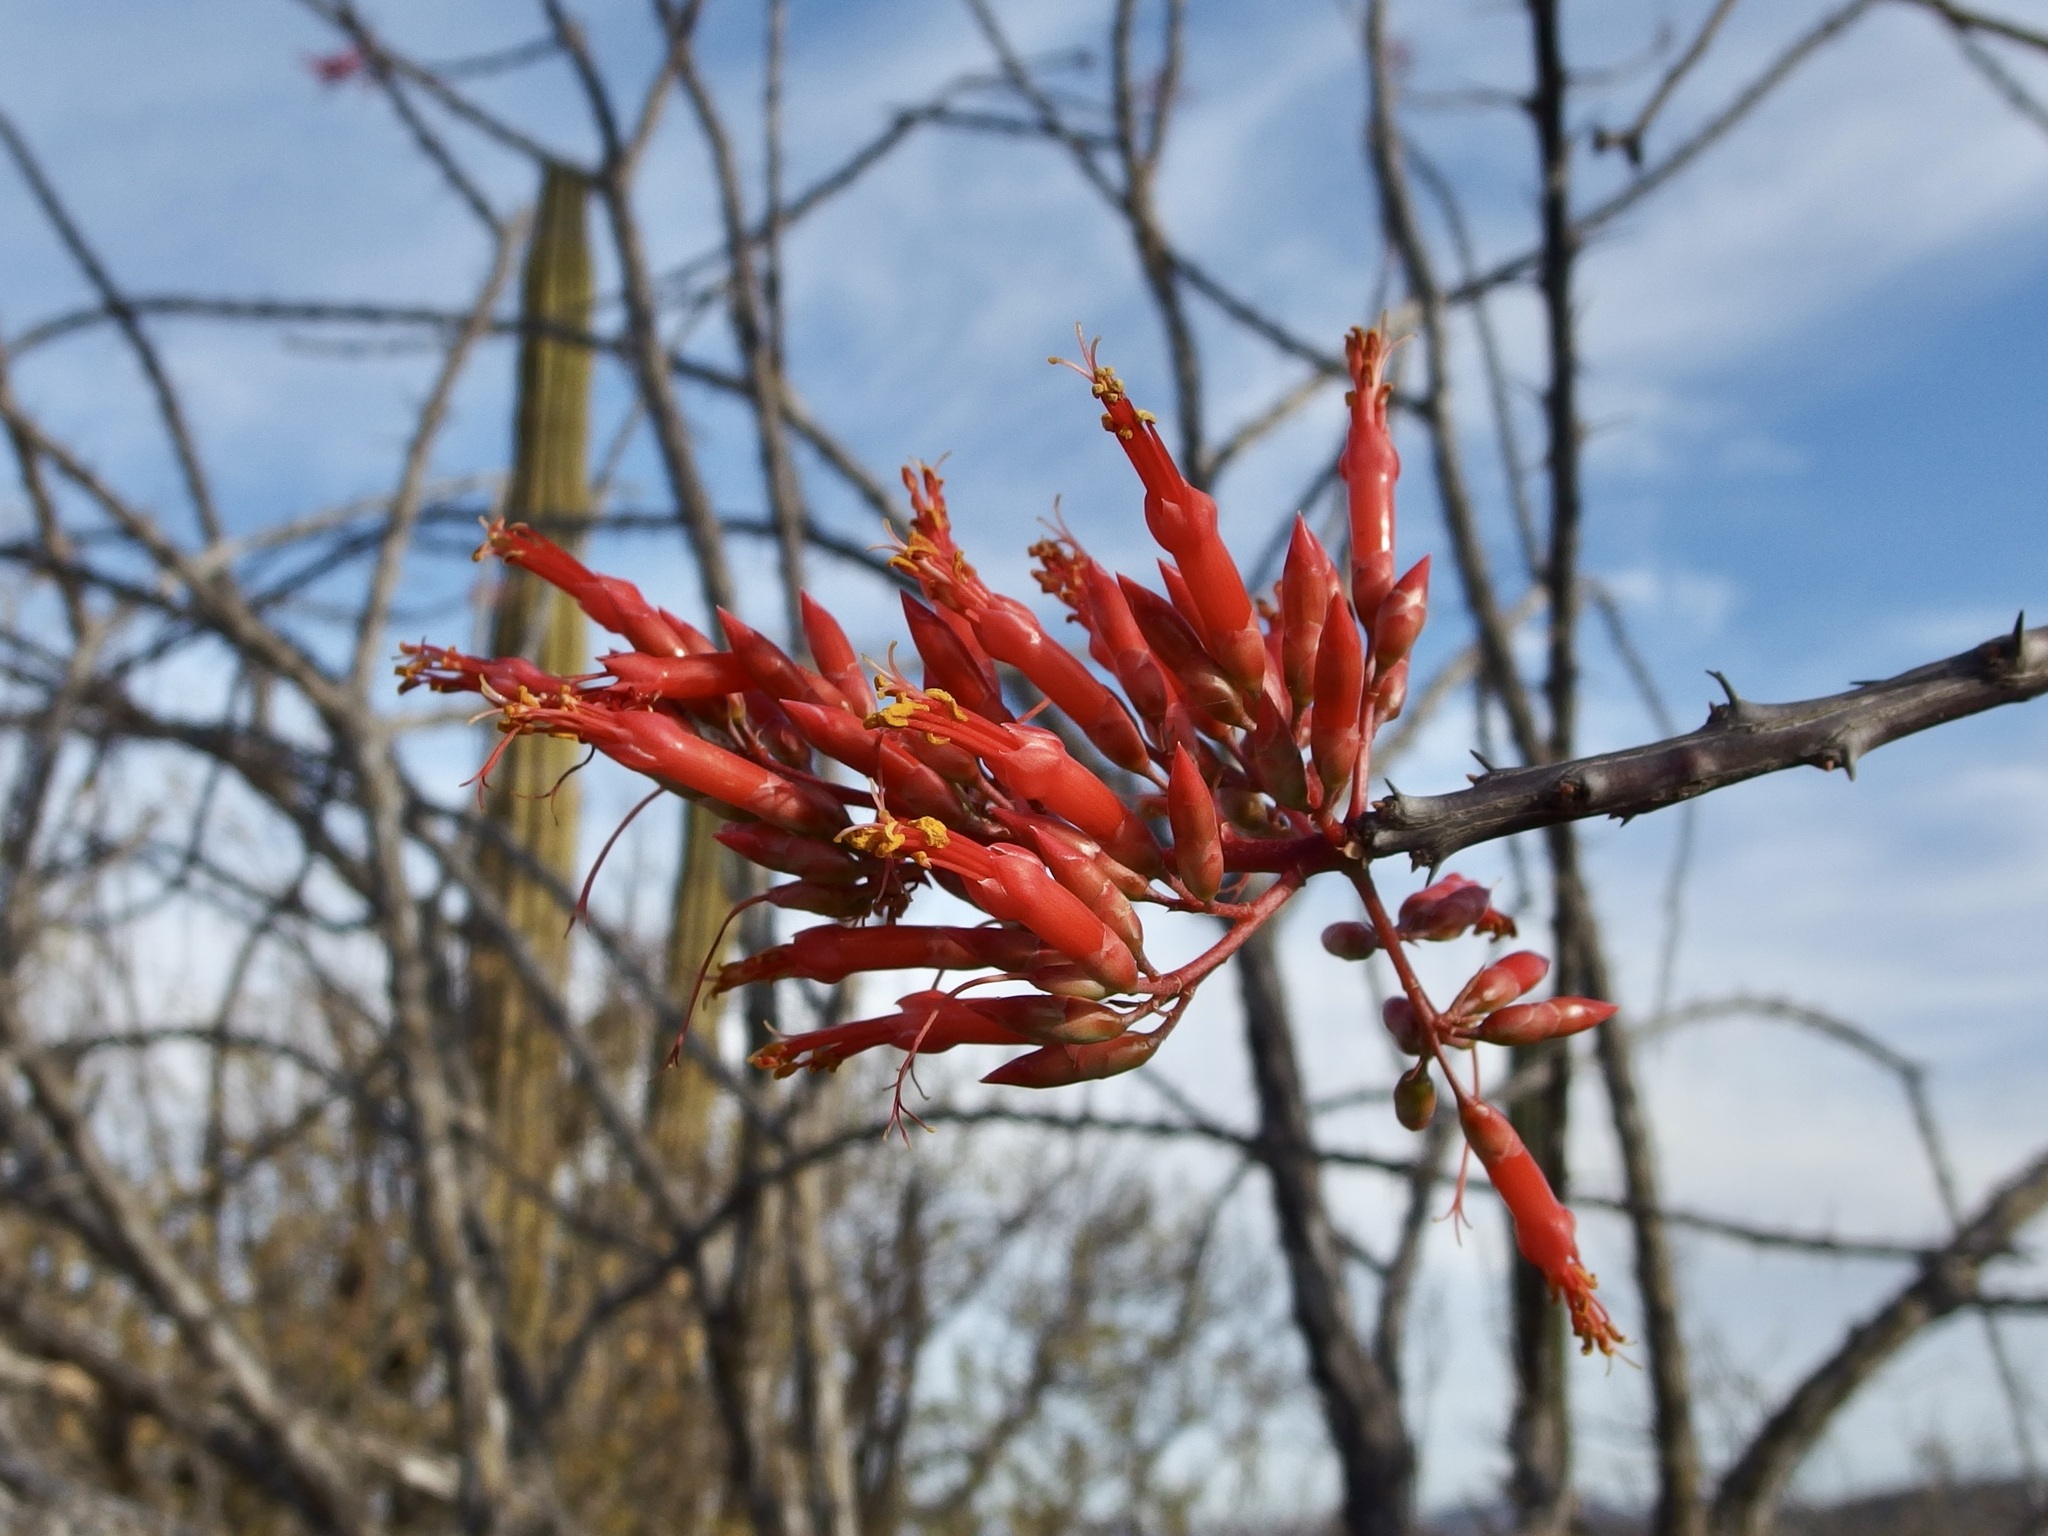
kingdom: Plantae
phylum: Tracheophyta
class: Magnoliopsida
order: Ericales
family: Fouquieriaceae
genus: Fouquieria
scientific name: Fouquieria diguetii
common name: Adam's tree
